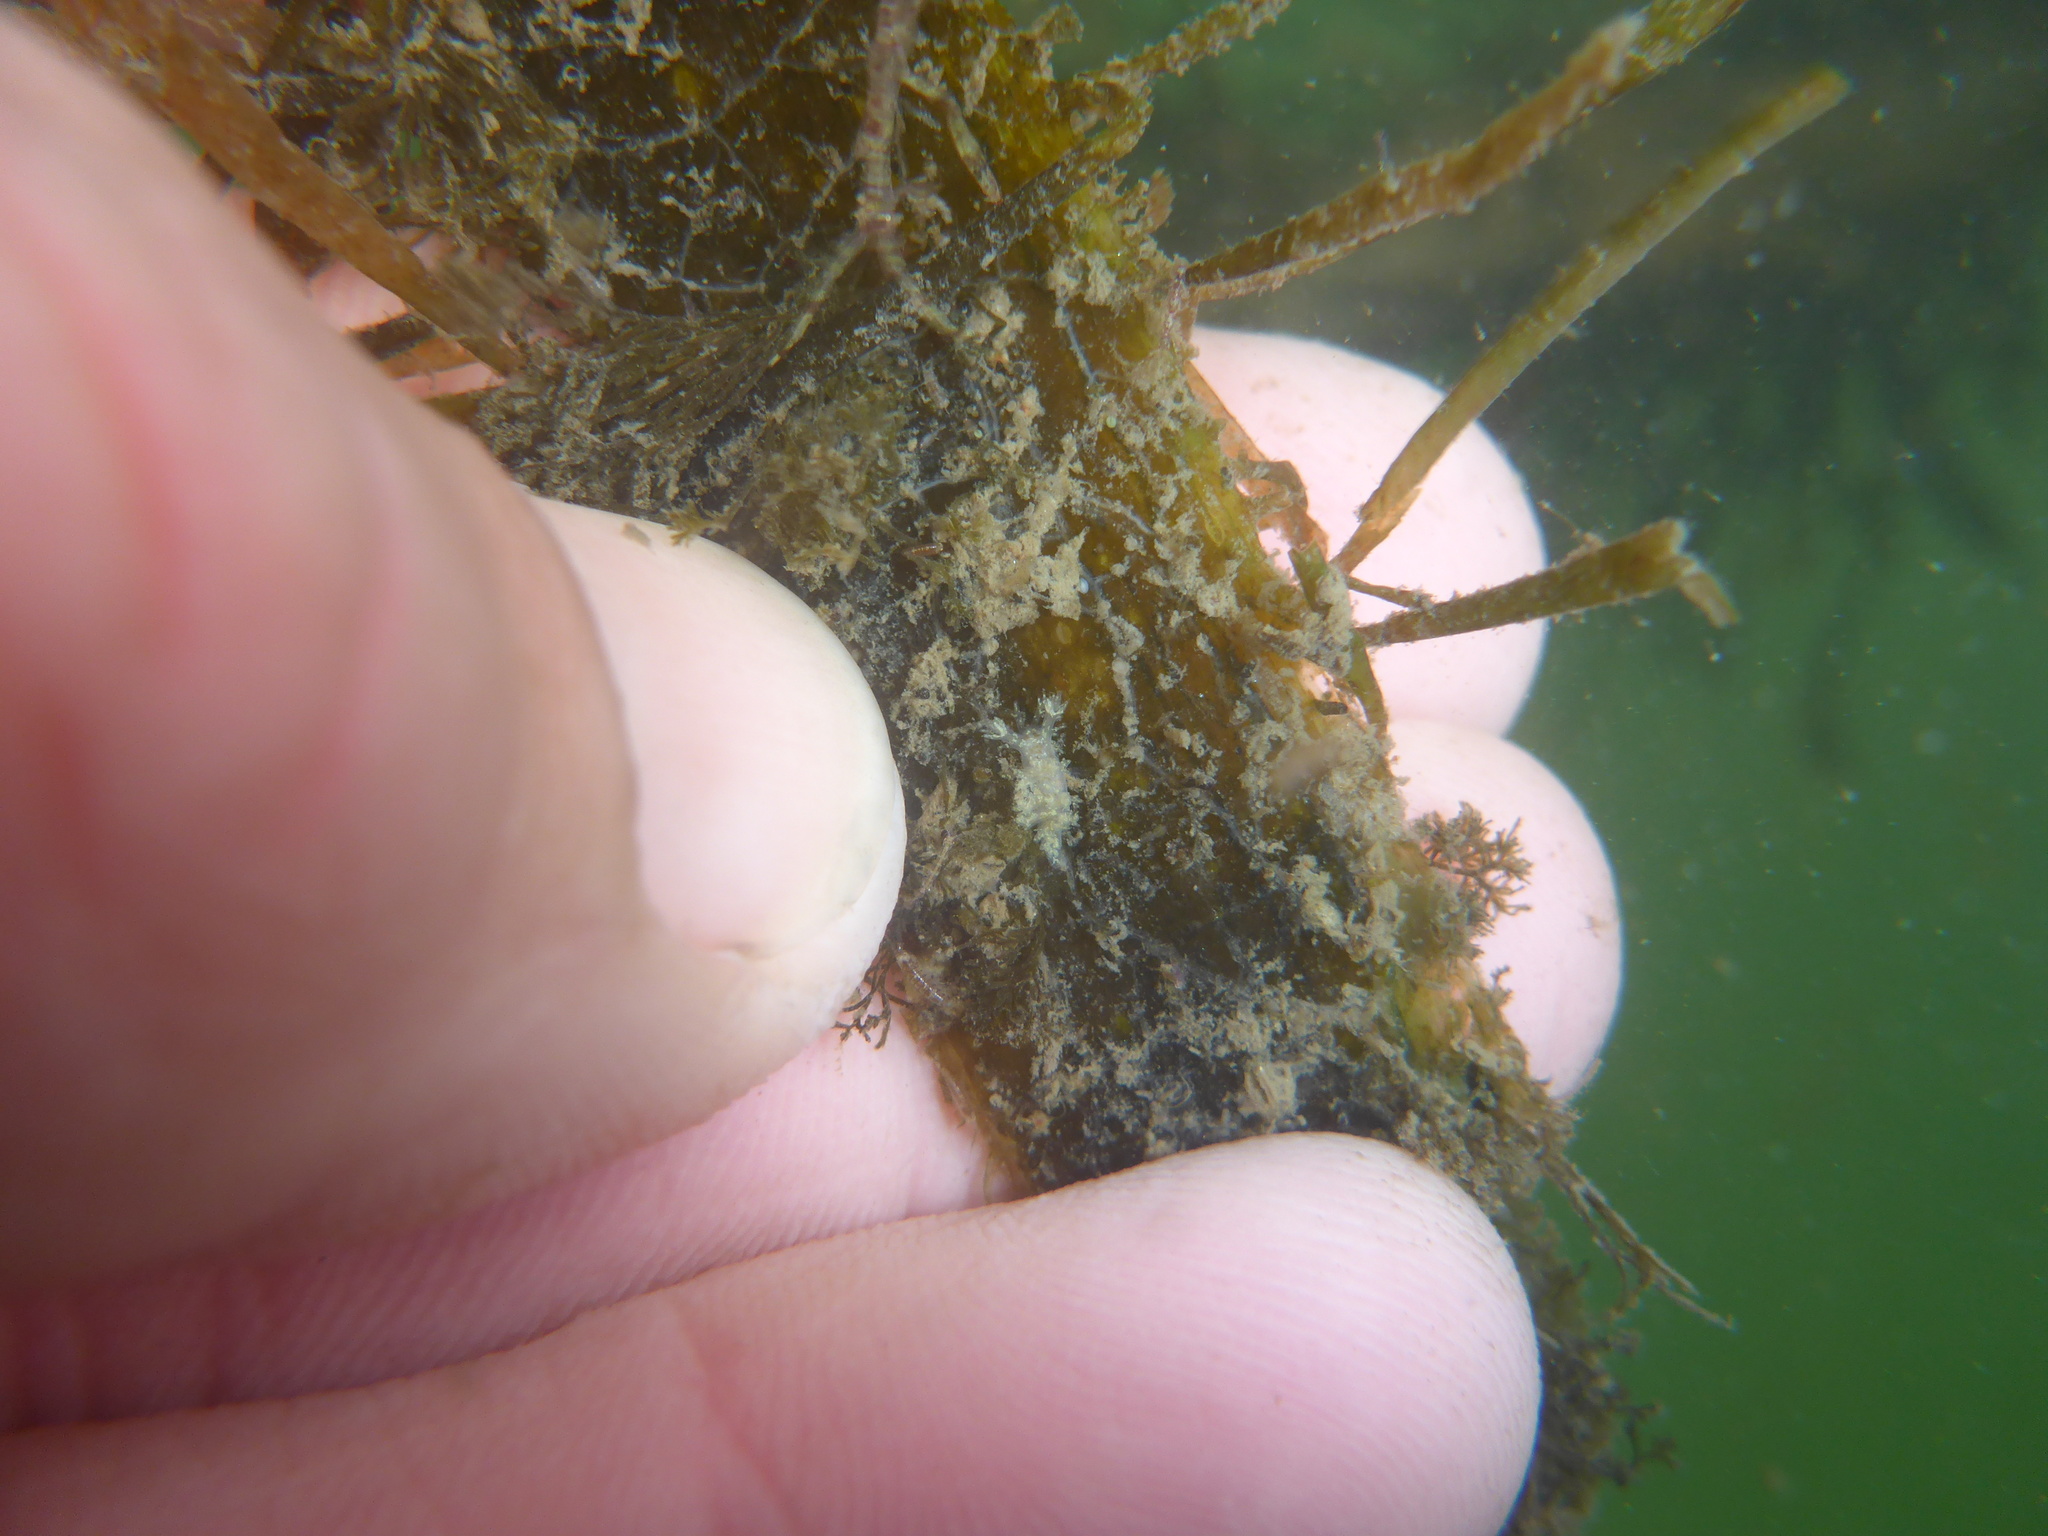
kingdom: Animalia
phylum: Mollusca
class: Gastropoda
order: Nudibranchia
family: Dendronotidae
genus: Dendronotus
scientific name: Dendronotus venustus
